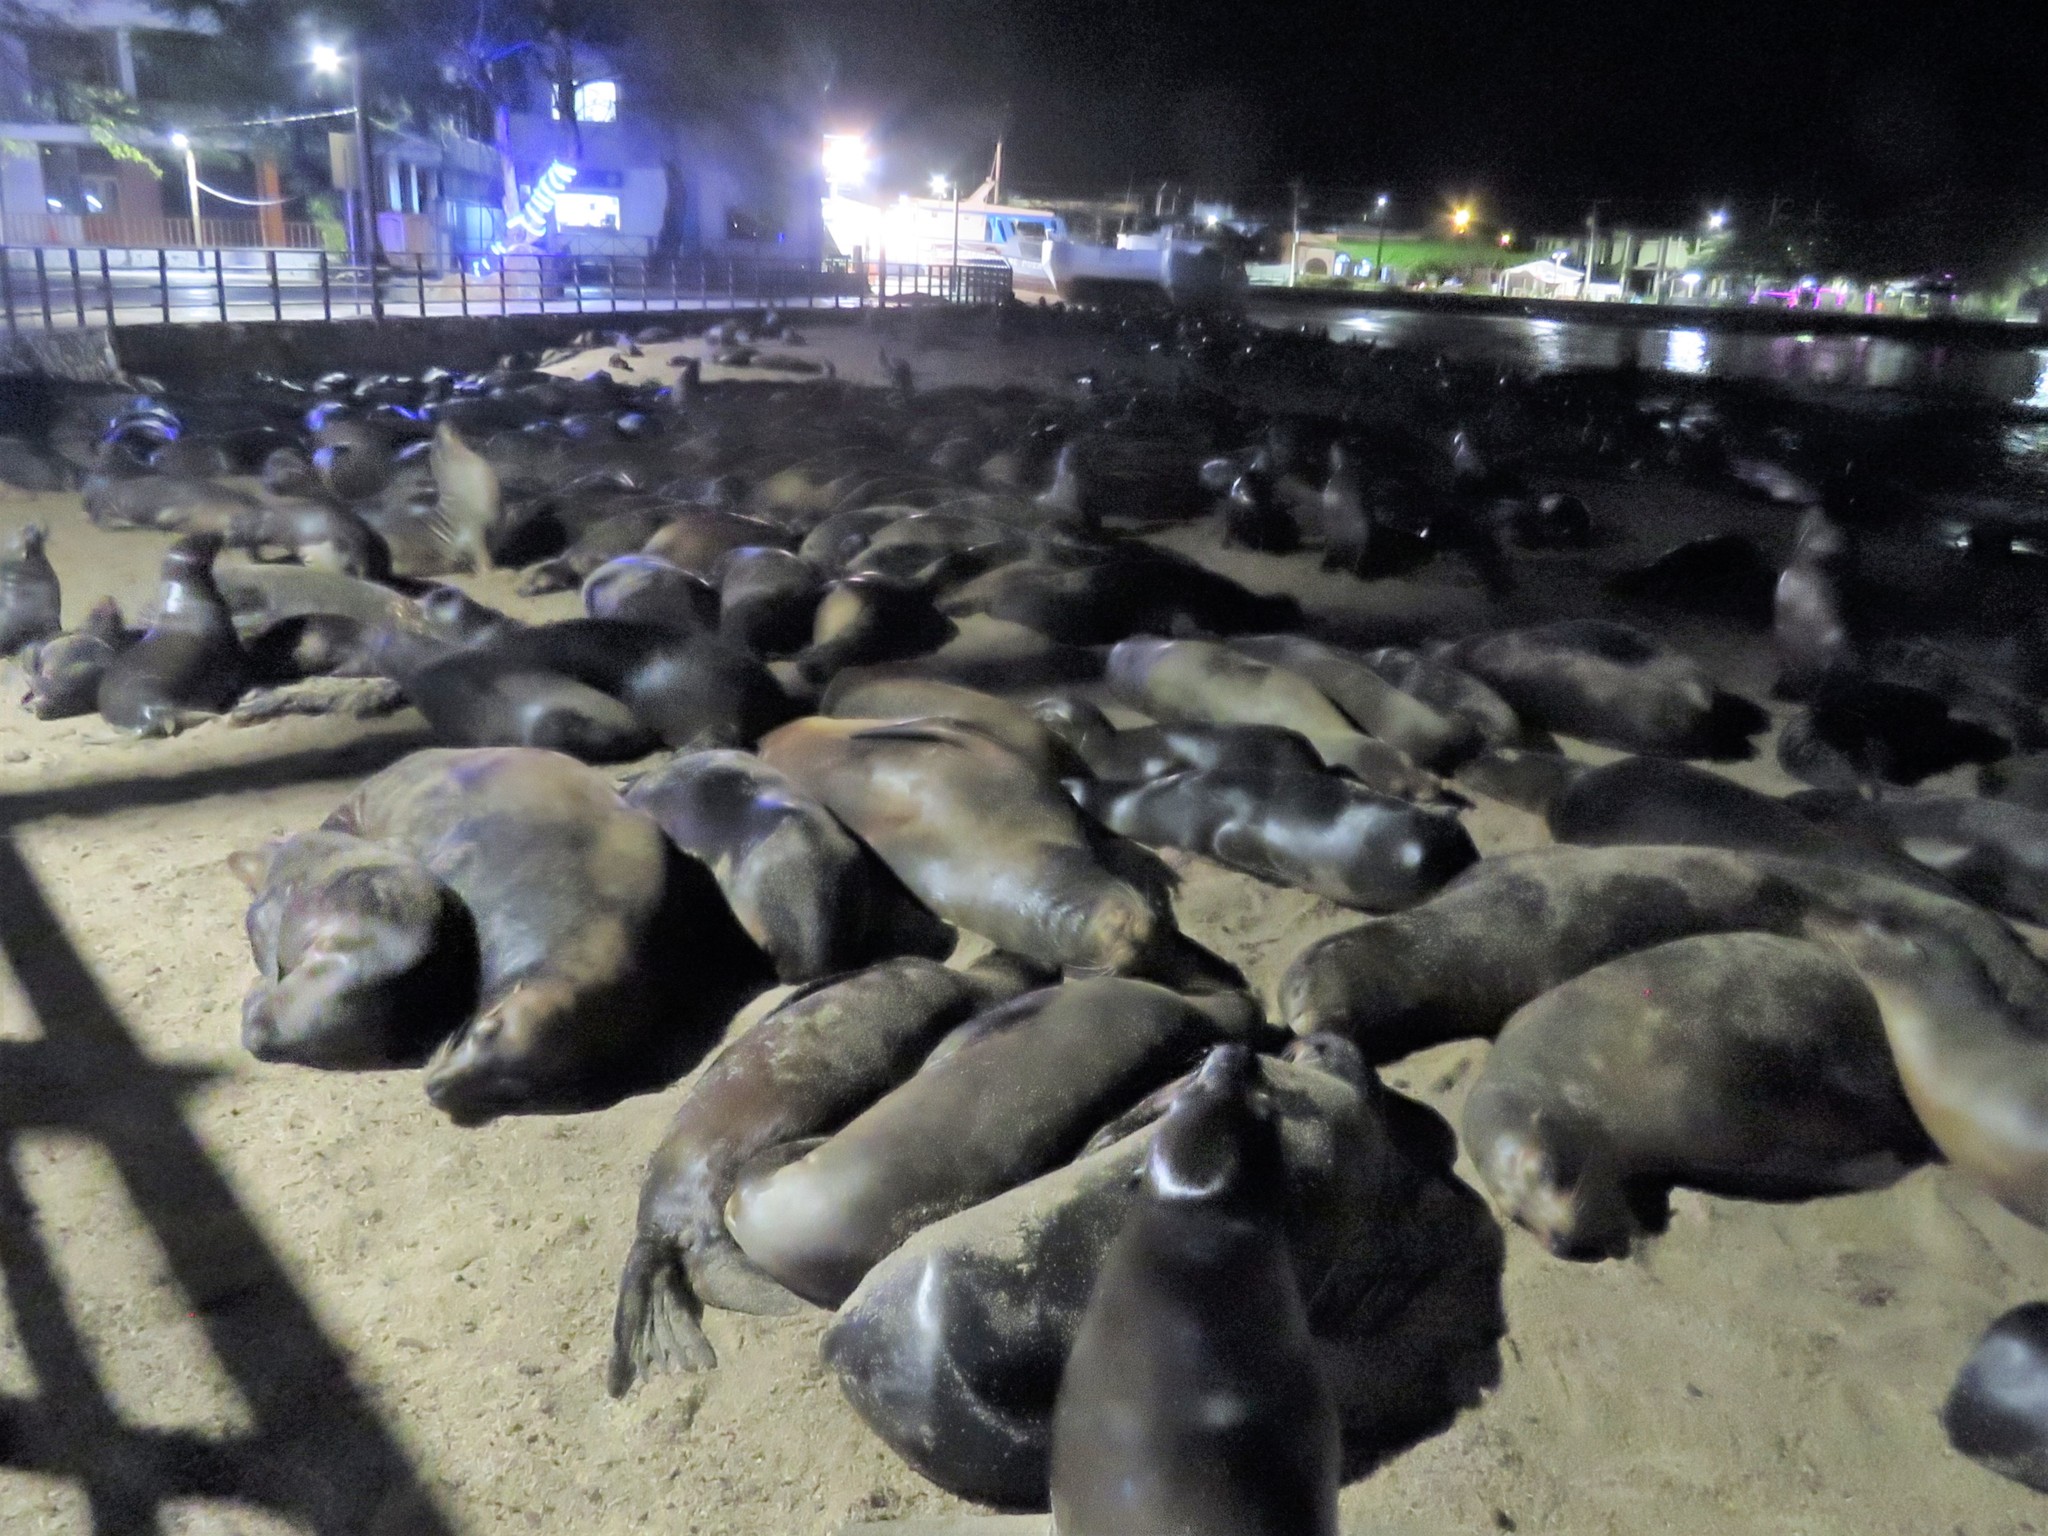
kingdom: Animalia
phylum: Chordata
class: Mammalia
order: Carnivora
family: Otariidae
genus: Zalophus
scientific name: Zalophus wollebaeki
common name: Galapagos sea lion
